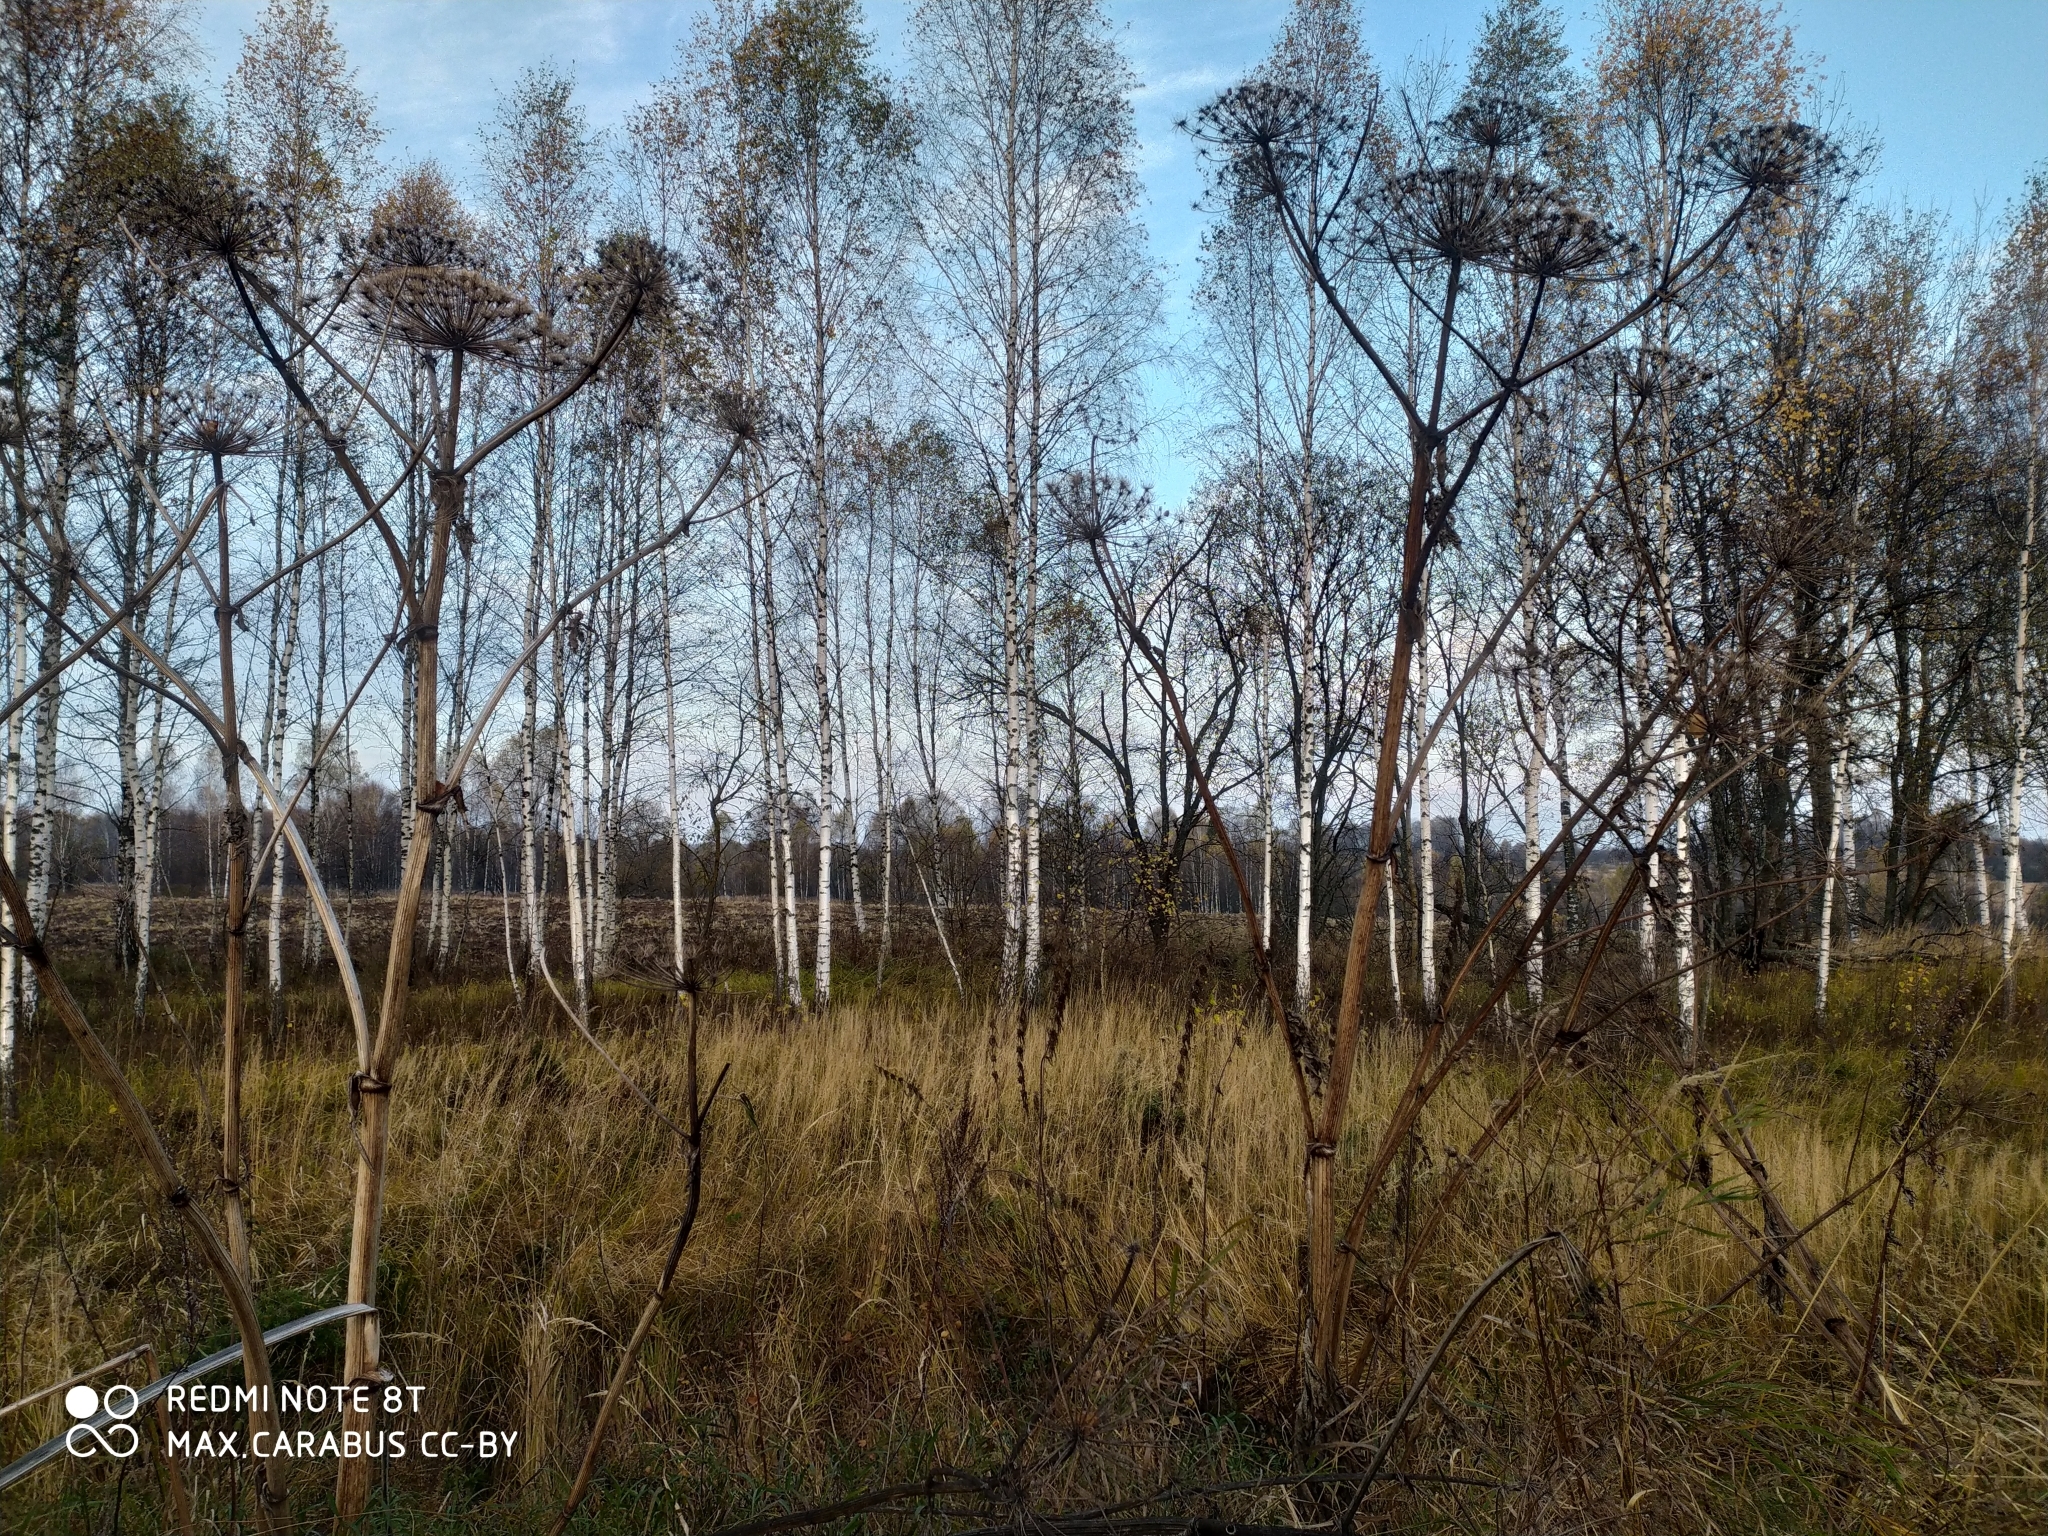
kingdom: Plantae
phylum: Tracheophyta
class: Magnoliopsida
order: Apiales
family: Apiaceae
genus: Heracleum
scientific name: Heracleum sosnowskyi
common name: Sosnowsky's hogweed
